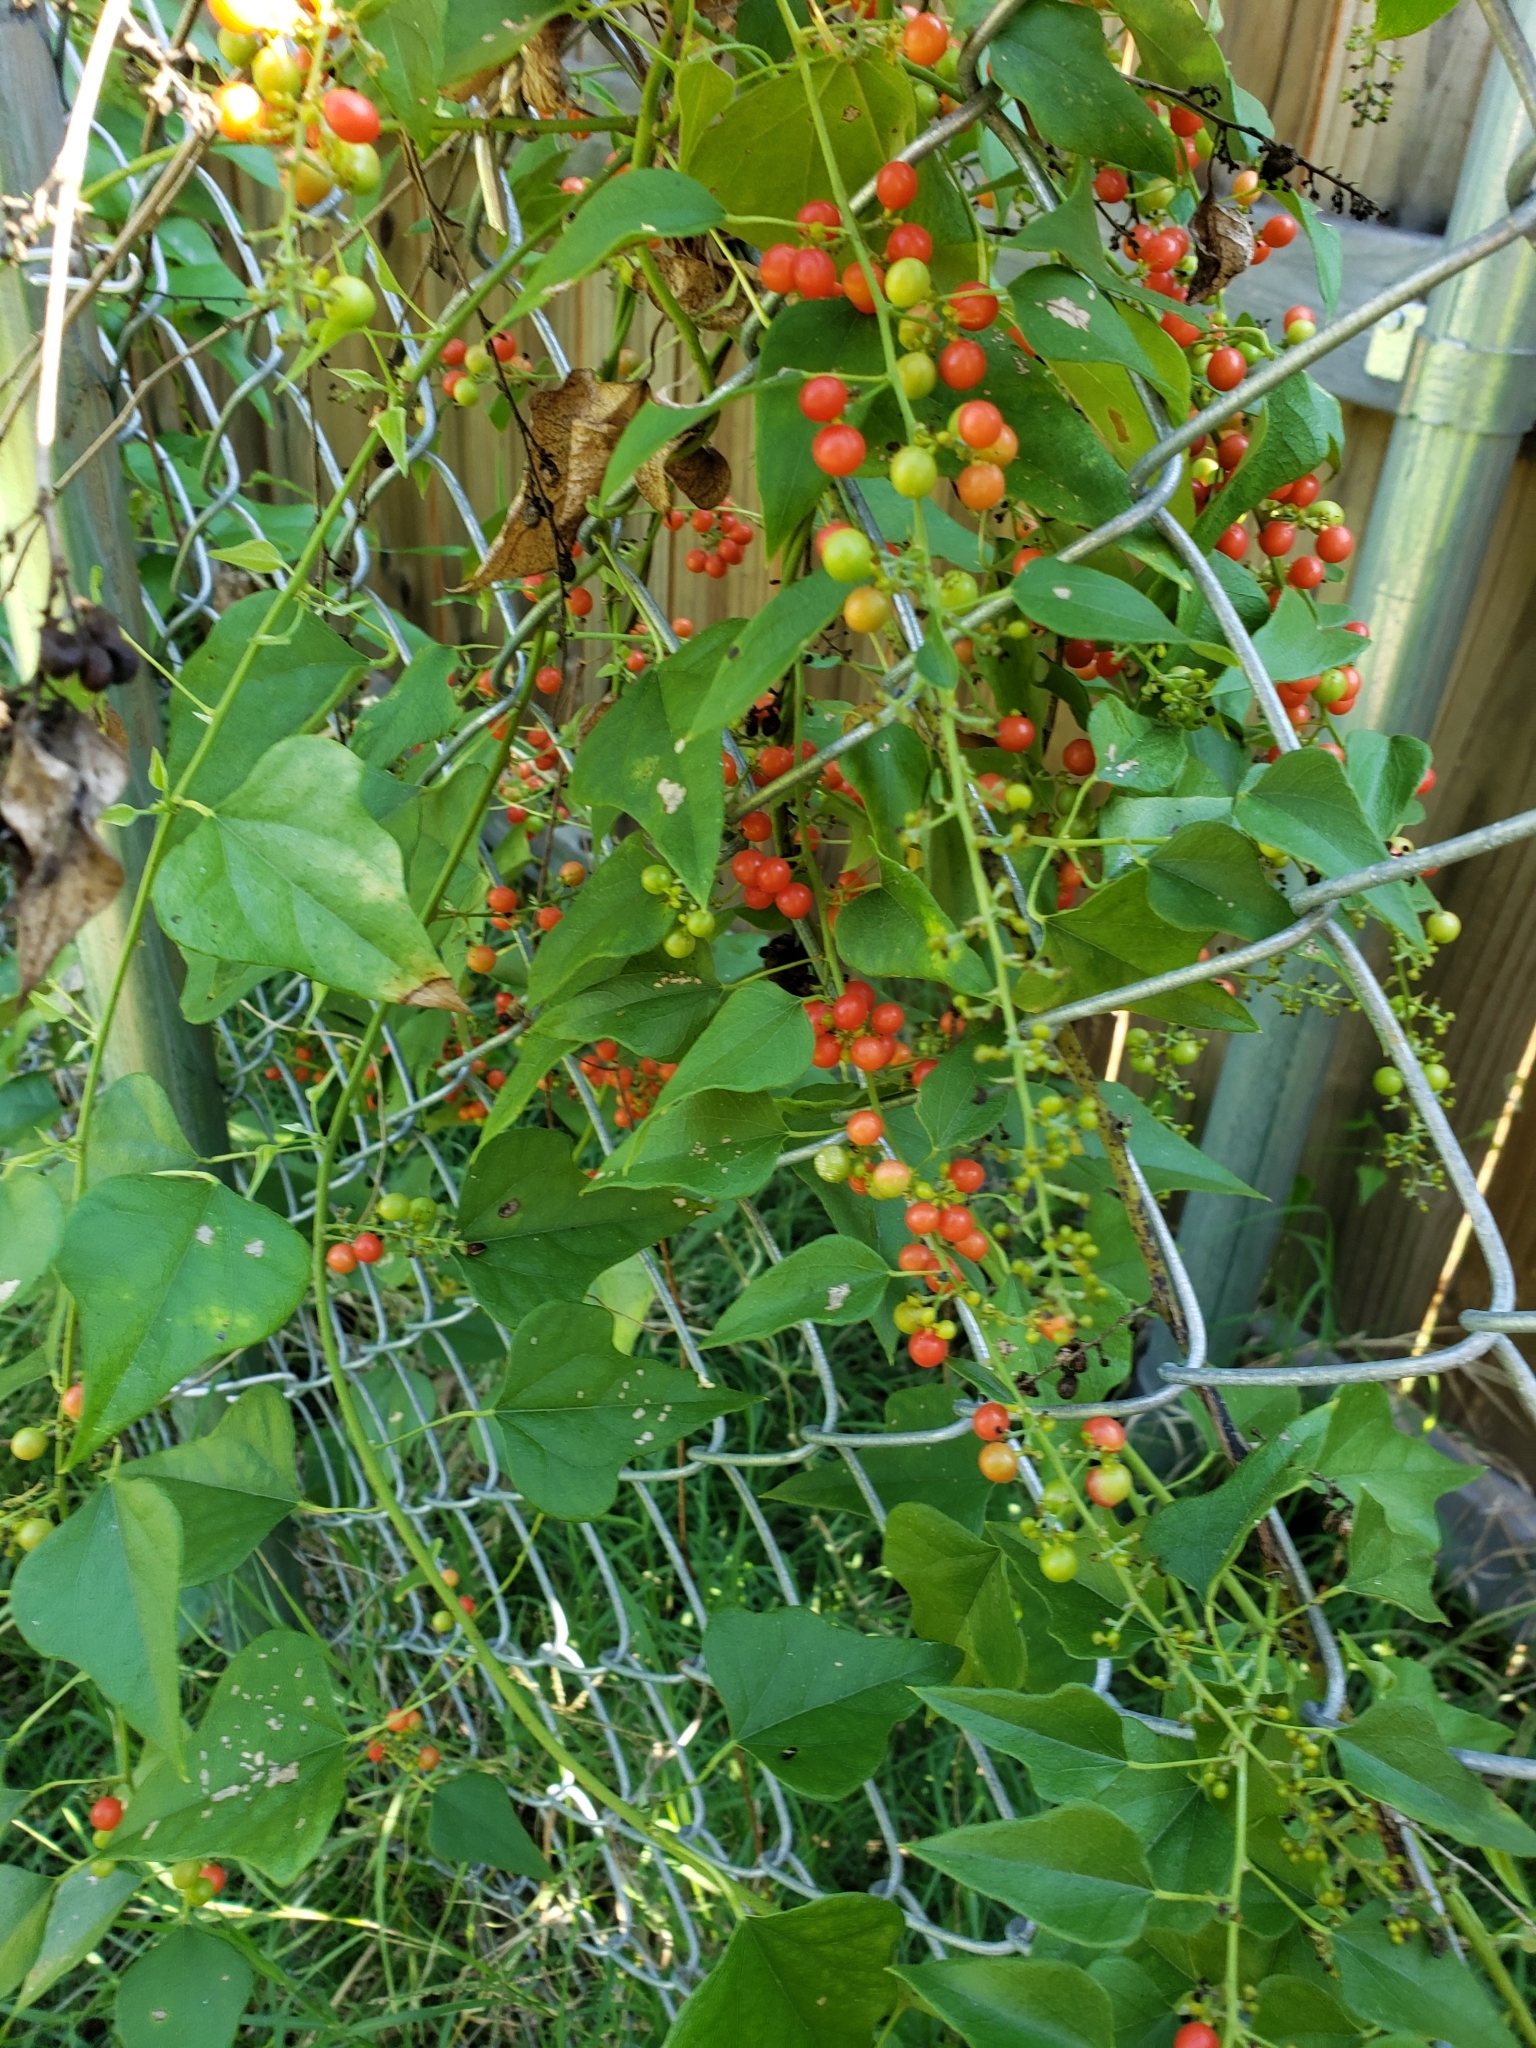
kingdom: Plantae
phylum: Tracheophyta
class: Magnoliopsida
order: Ranunculales
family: Menispermaceae
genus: Cocculus
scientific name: Cocculus carolinus
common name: Carolina moonseed
